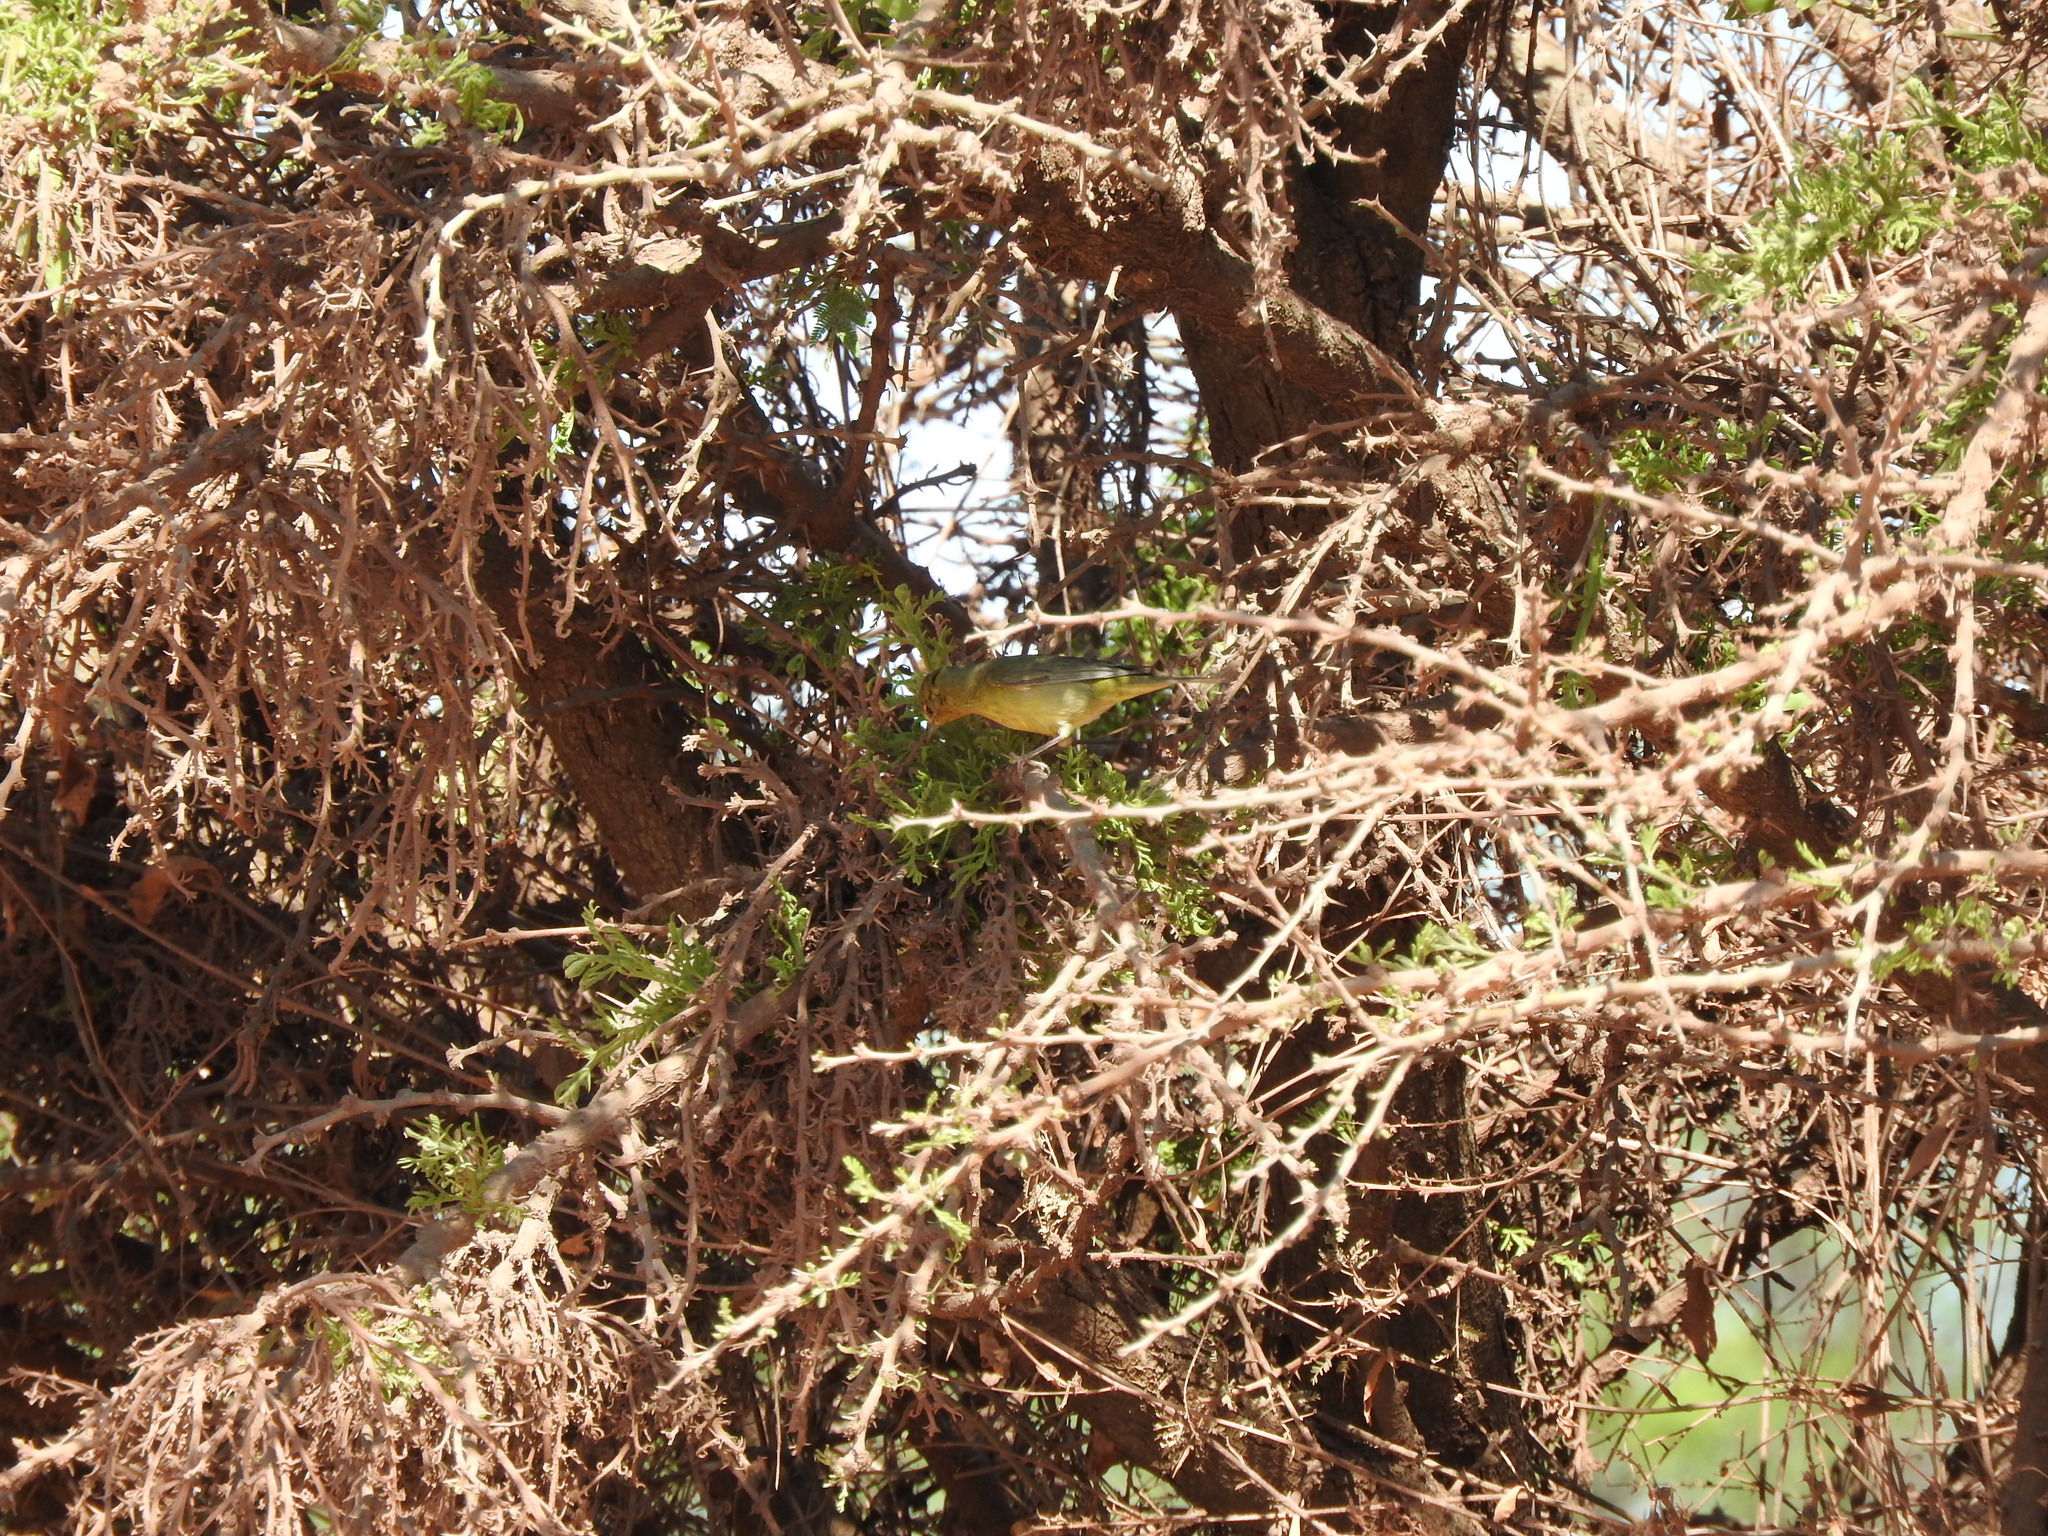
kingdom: Animalia
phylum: Chordata
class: Aves
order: Passeriformes
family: Parulidae
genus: Leiothlypis
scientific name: Leiothlypis virginiae
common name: Virginia's warbler
